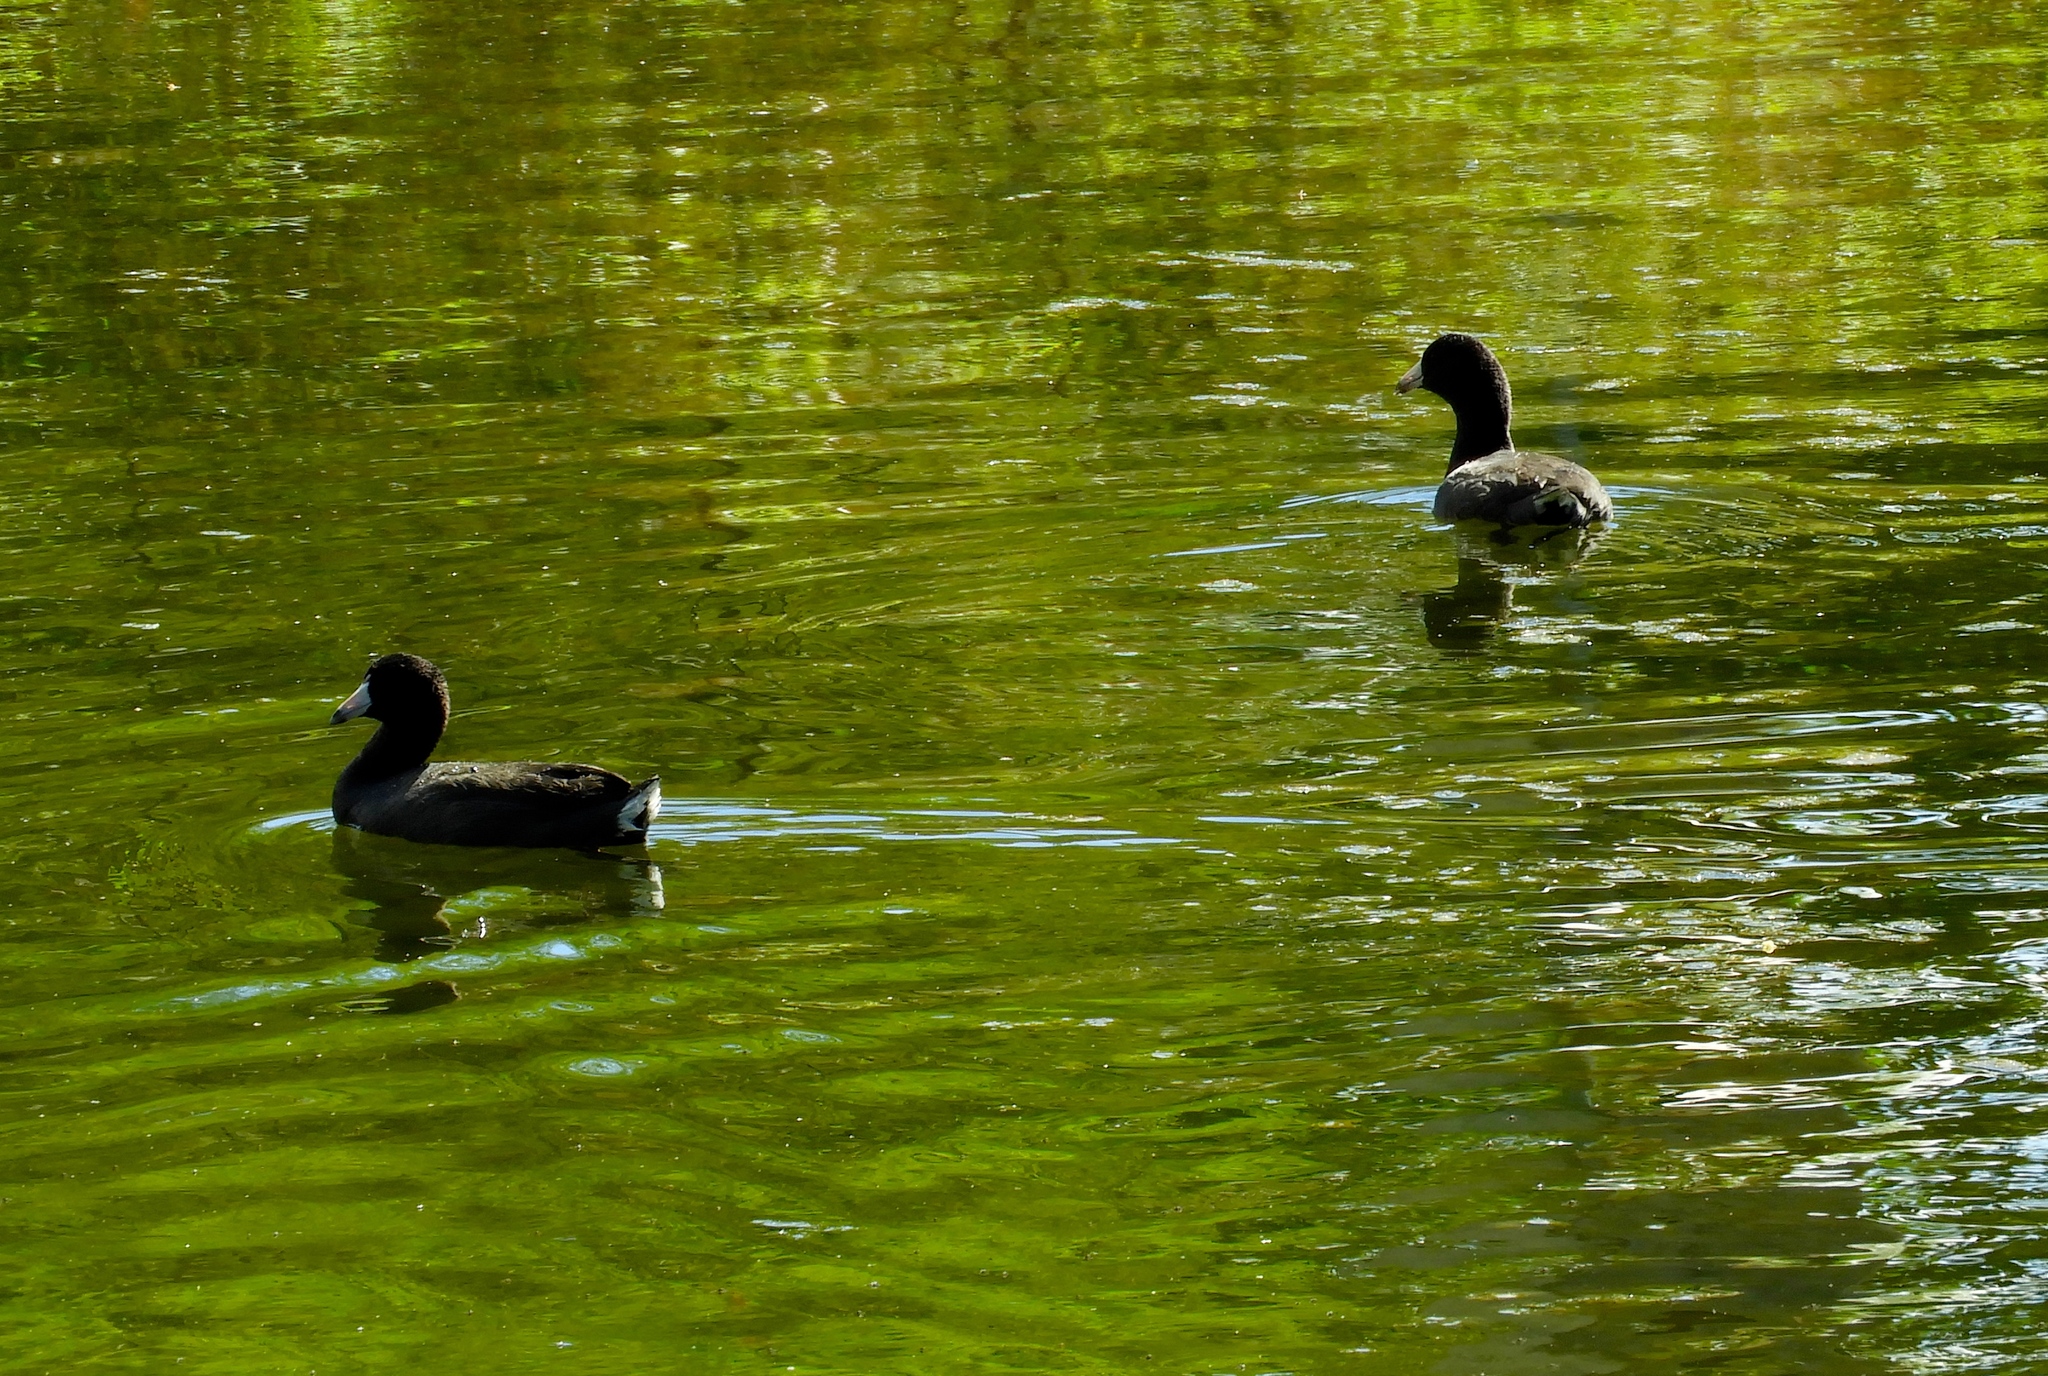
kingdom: Animalia
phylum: Chordata
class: Aves
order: Gruiformes
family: Rallidae
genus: Fulica
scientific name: Fulica americana
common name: American coot
